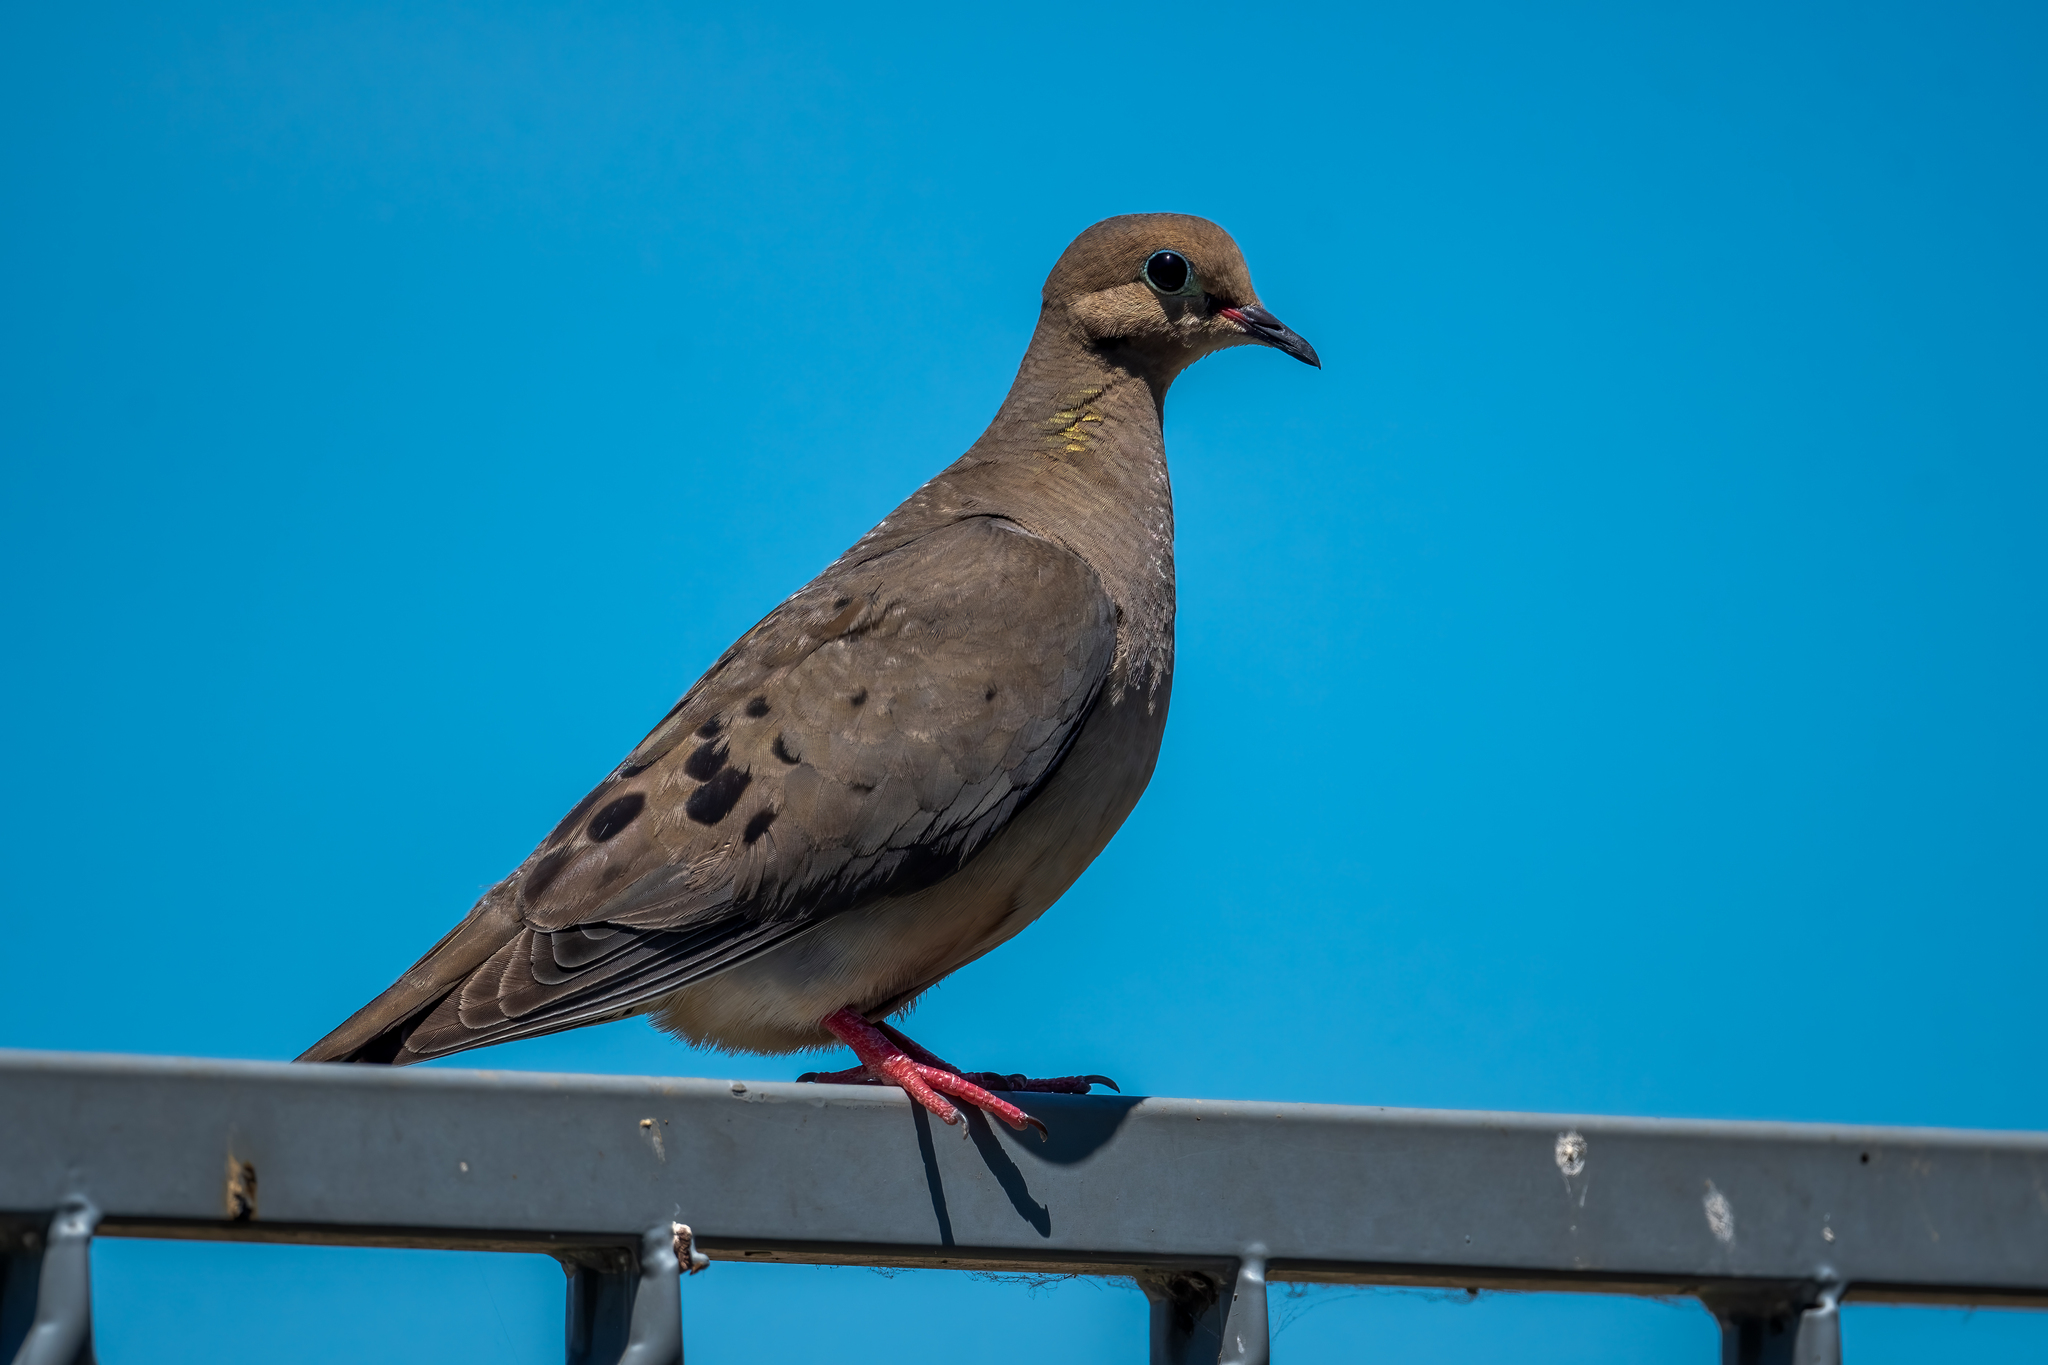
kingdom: Animalia
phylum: Chordata
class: Aves
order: Columbiformes
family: Columbidae
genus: Zenaida
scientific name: Zenaida macroura
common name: Mourning dove
